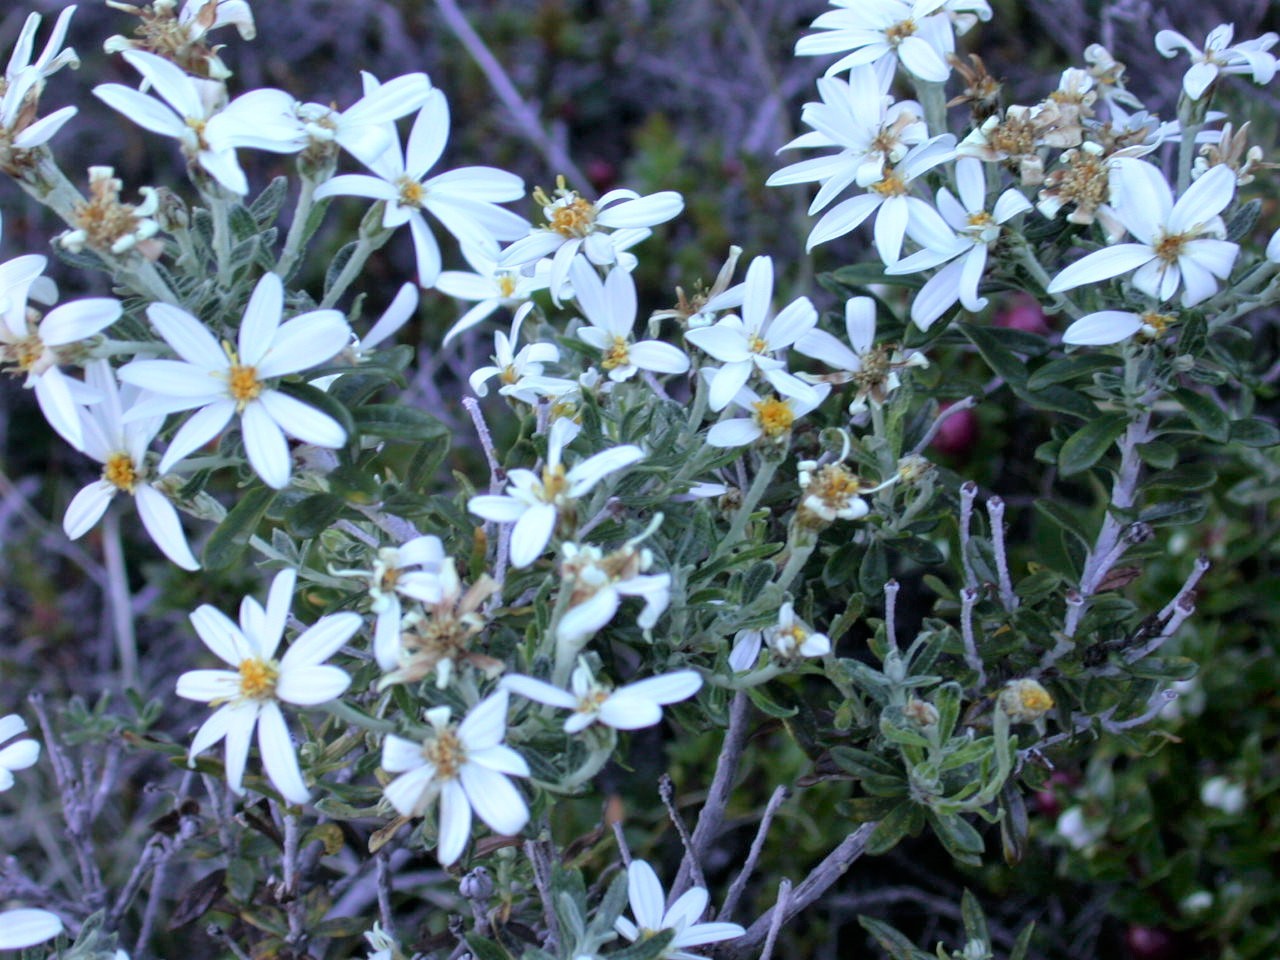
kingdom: Plantae
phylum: Tracheophyta
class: Magnoliopsida
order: Asterales
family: Asteraceae
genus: Chiliotrichum
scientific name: Chiliotrichum diffusum
